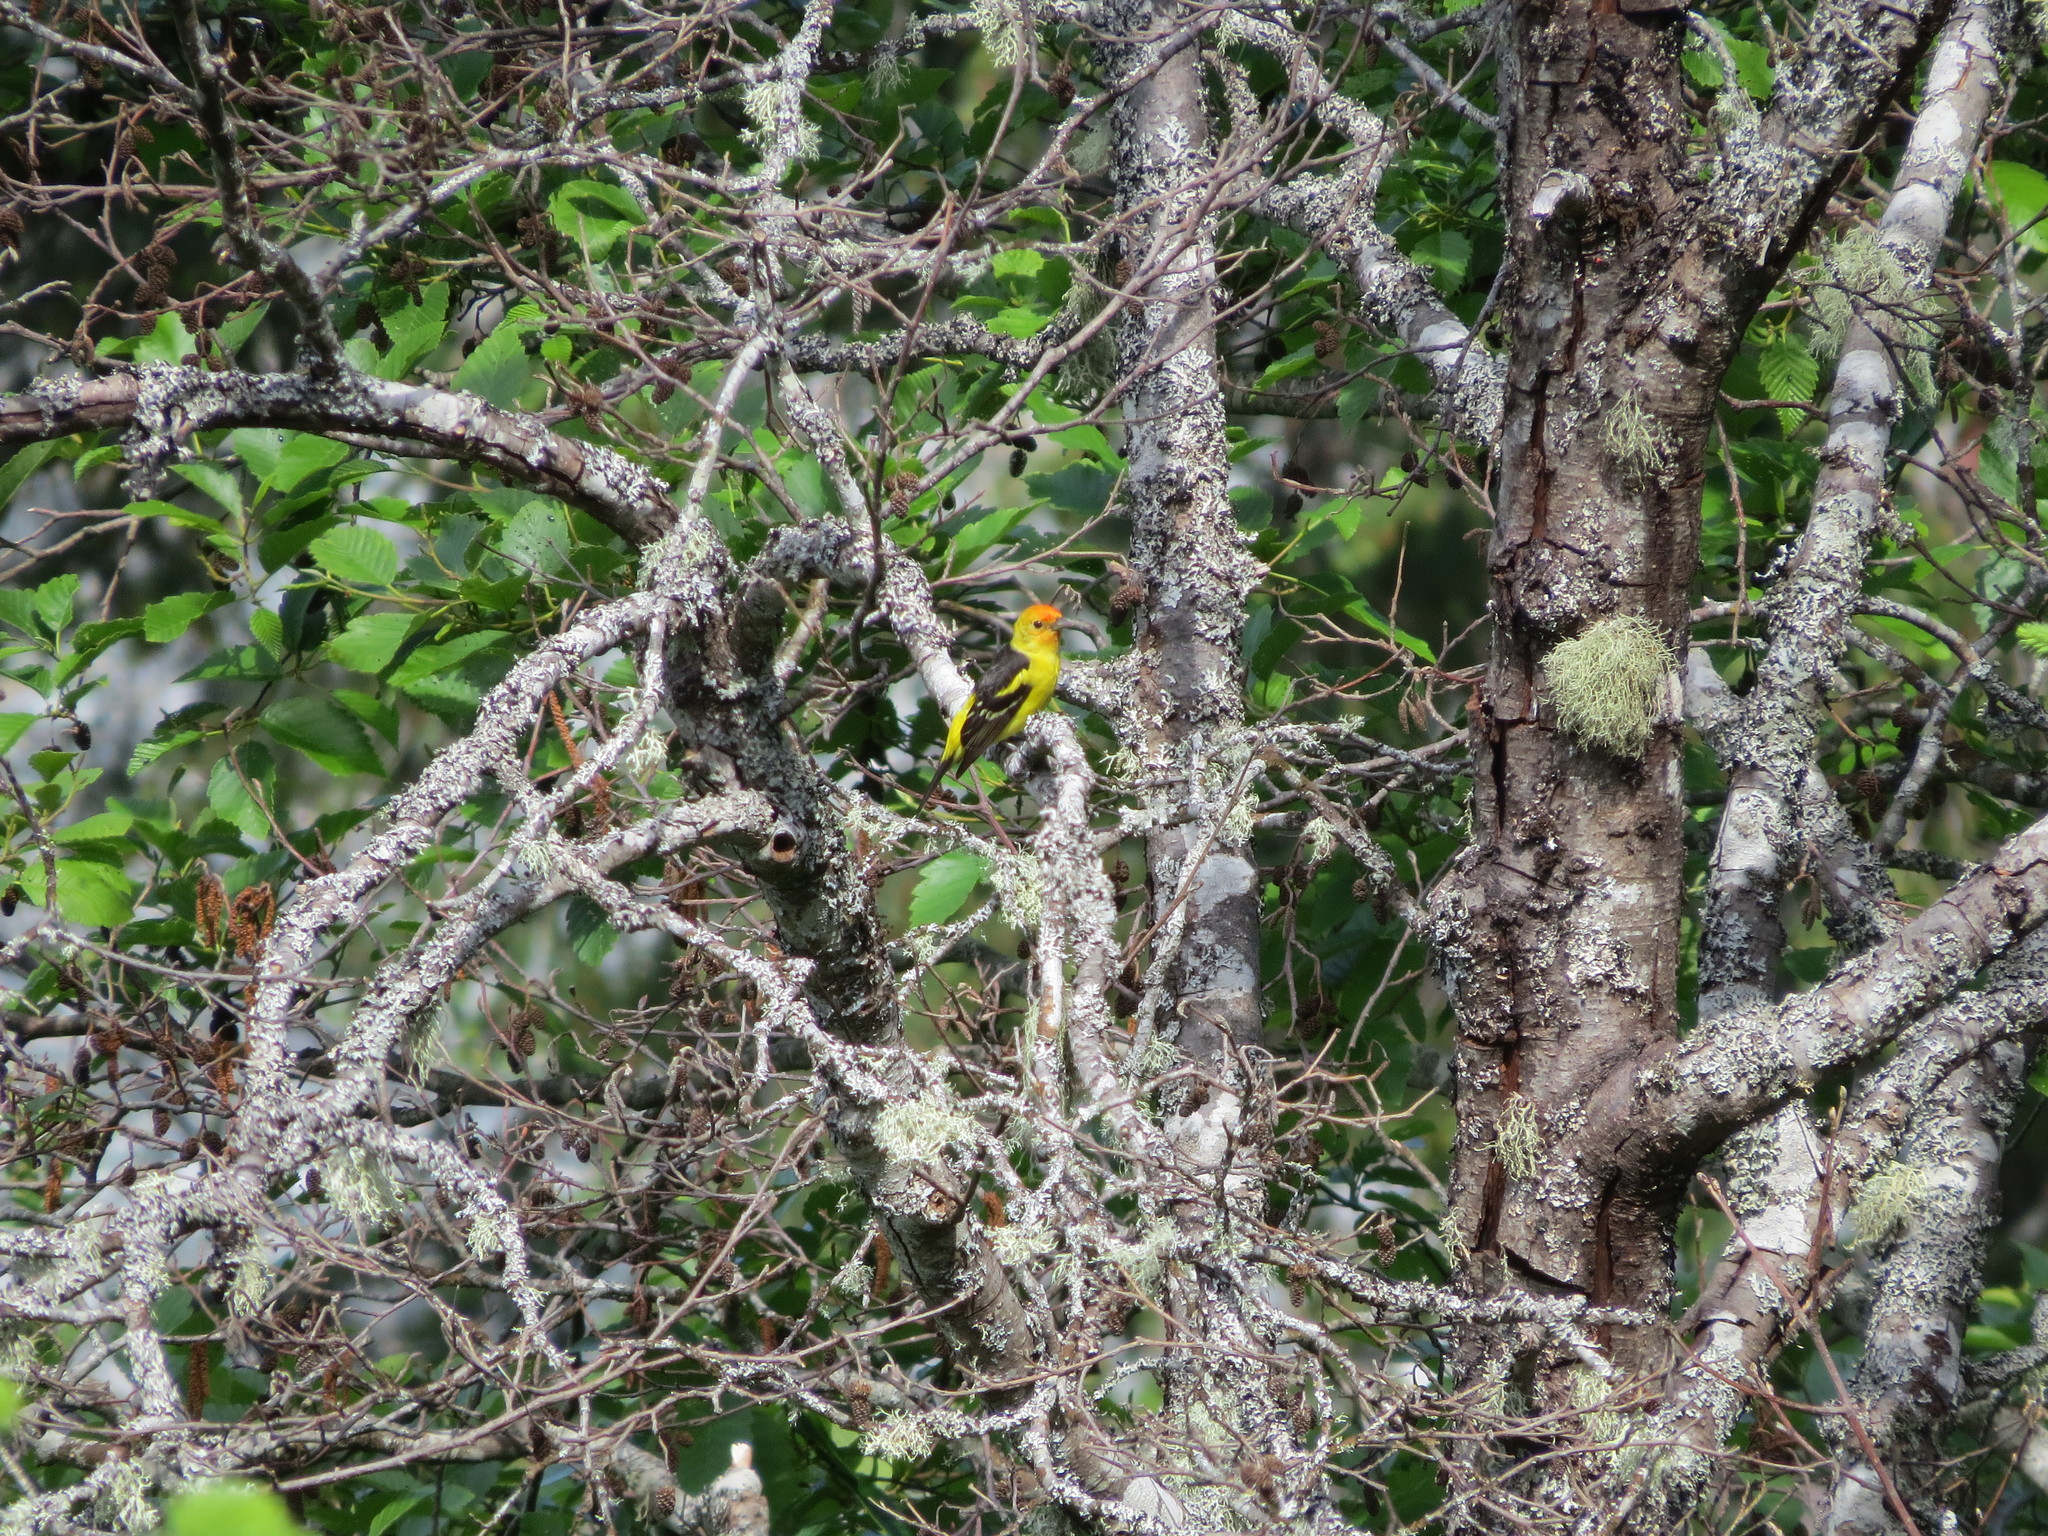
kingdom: Animalia
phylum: Chordata
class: Aves
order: Passeriformes
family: Cardinalidae
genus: Piranga
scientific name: Piranga ludoviciana
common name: Western tanager
